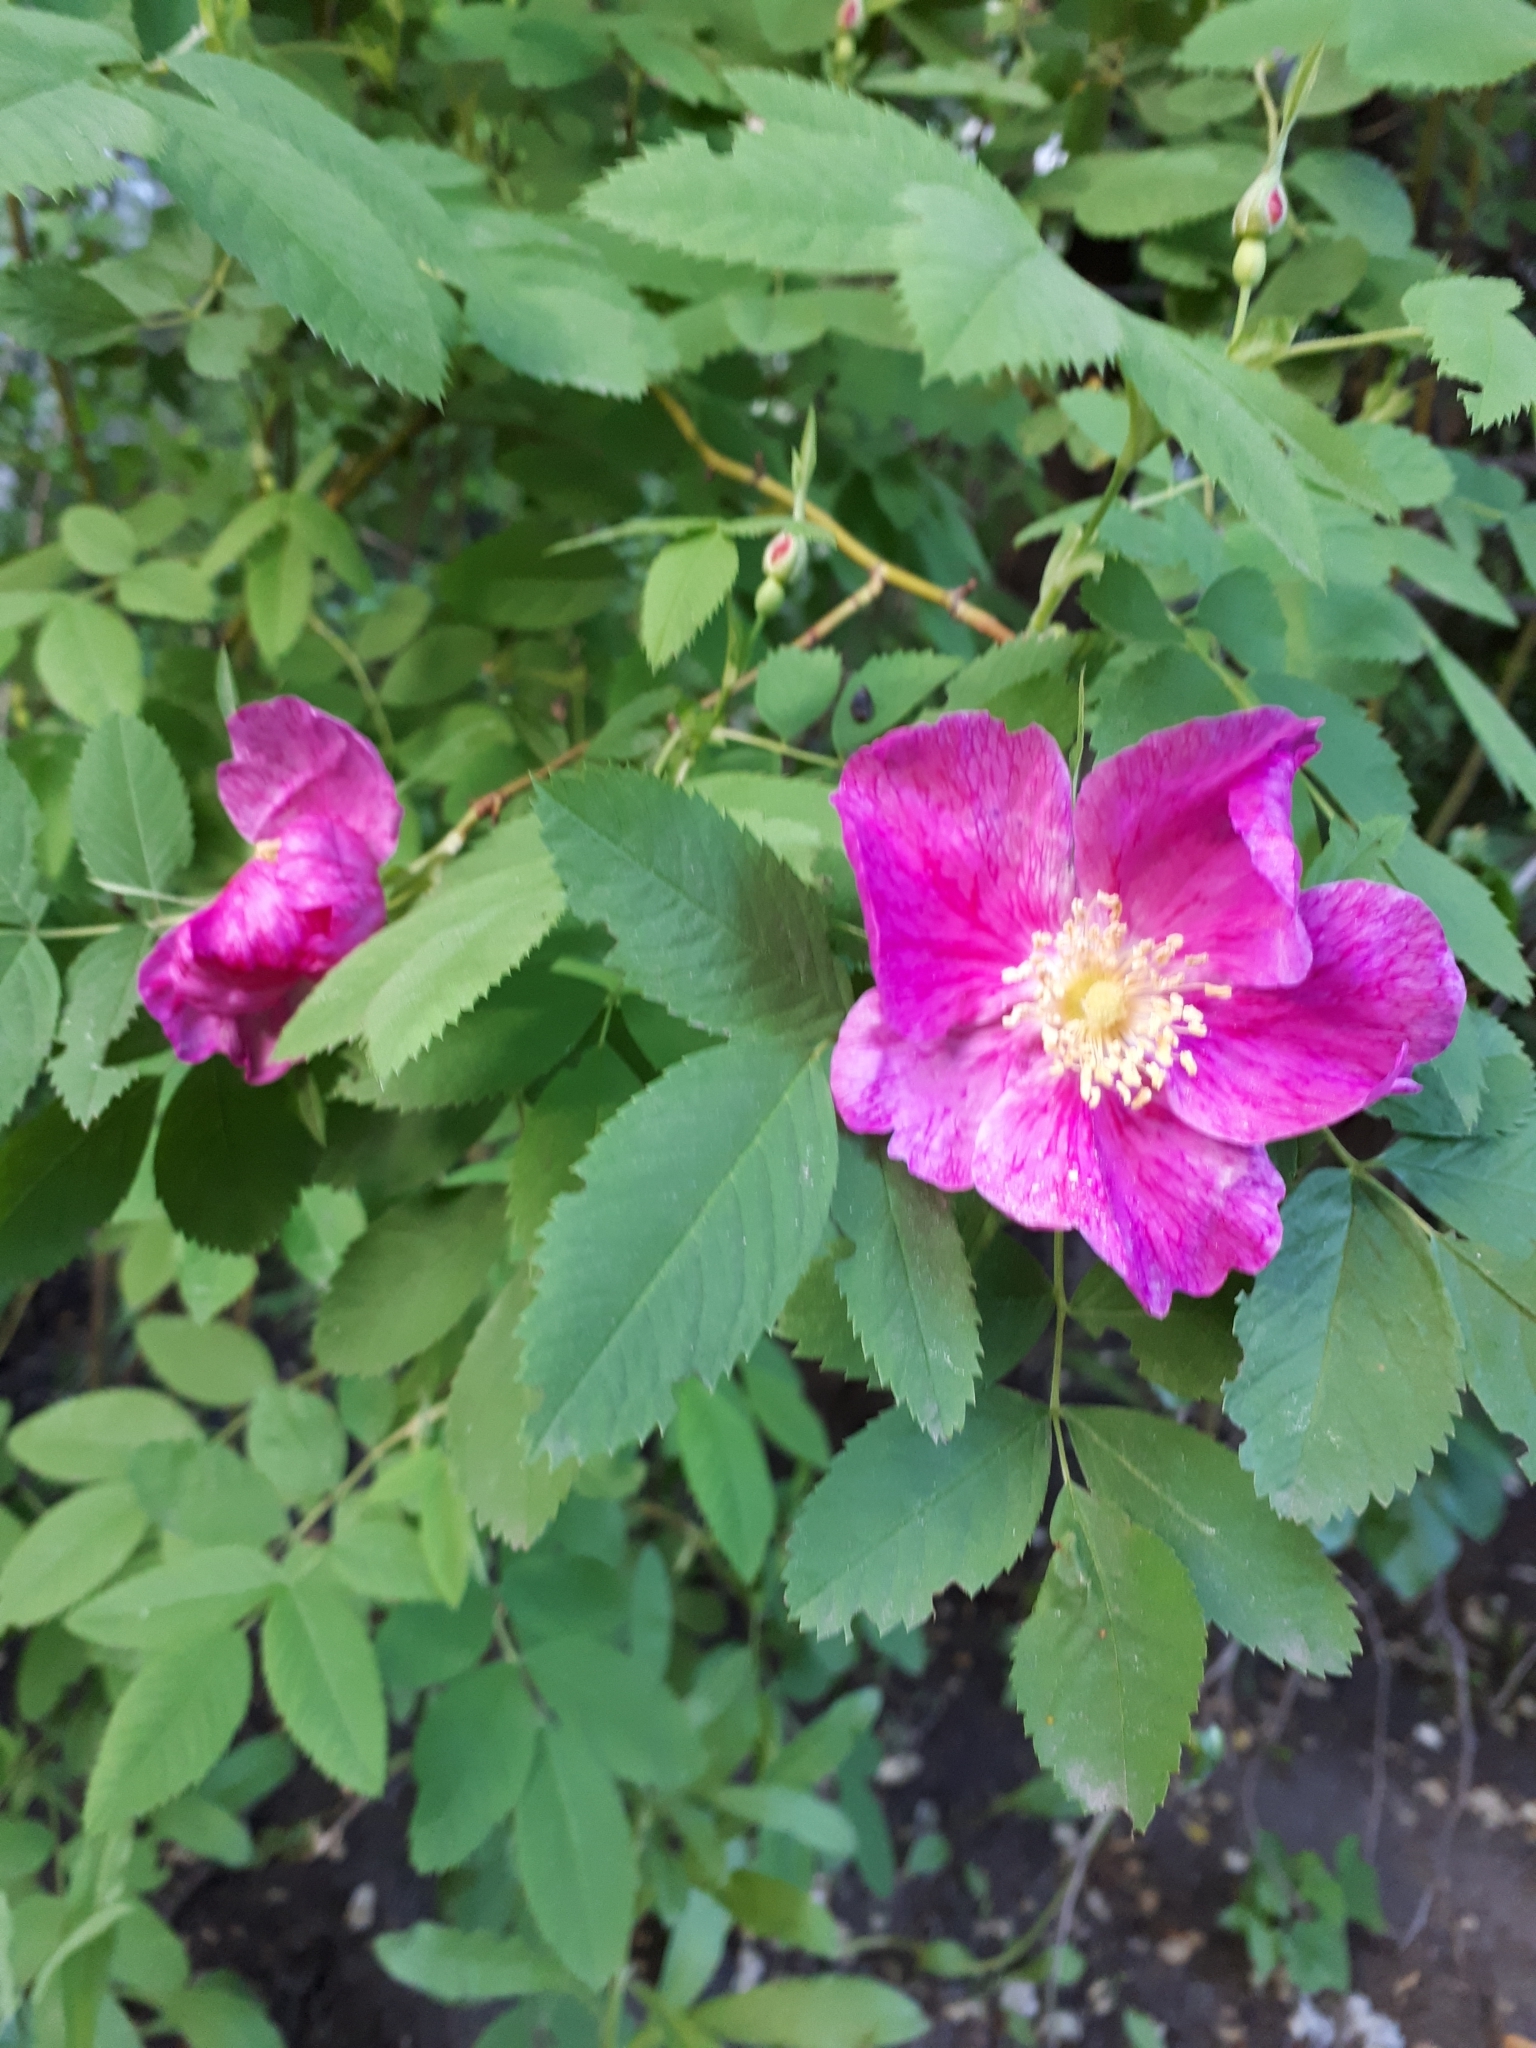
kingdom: Plantae
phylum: Tracheophyta
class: Magnoliopsida
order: Rosales
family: Rosaceae
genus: Rosa
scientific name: Rosa
